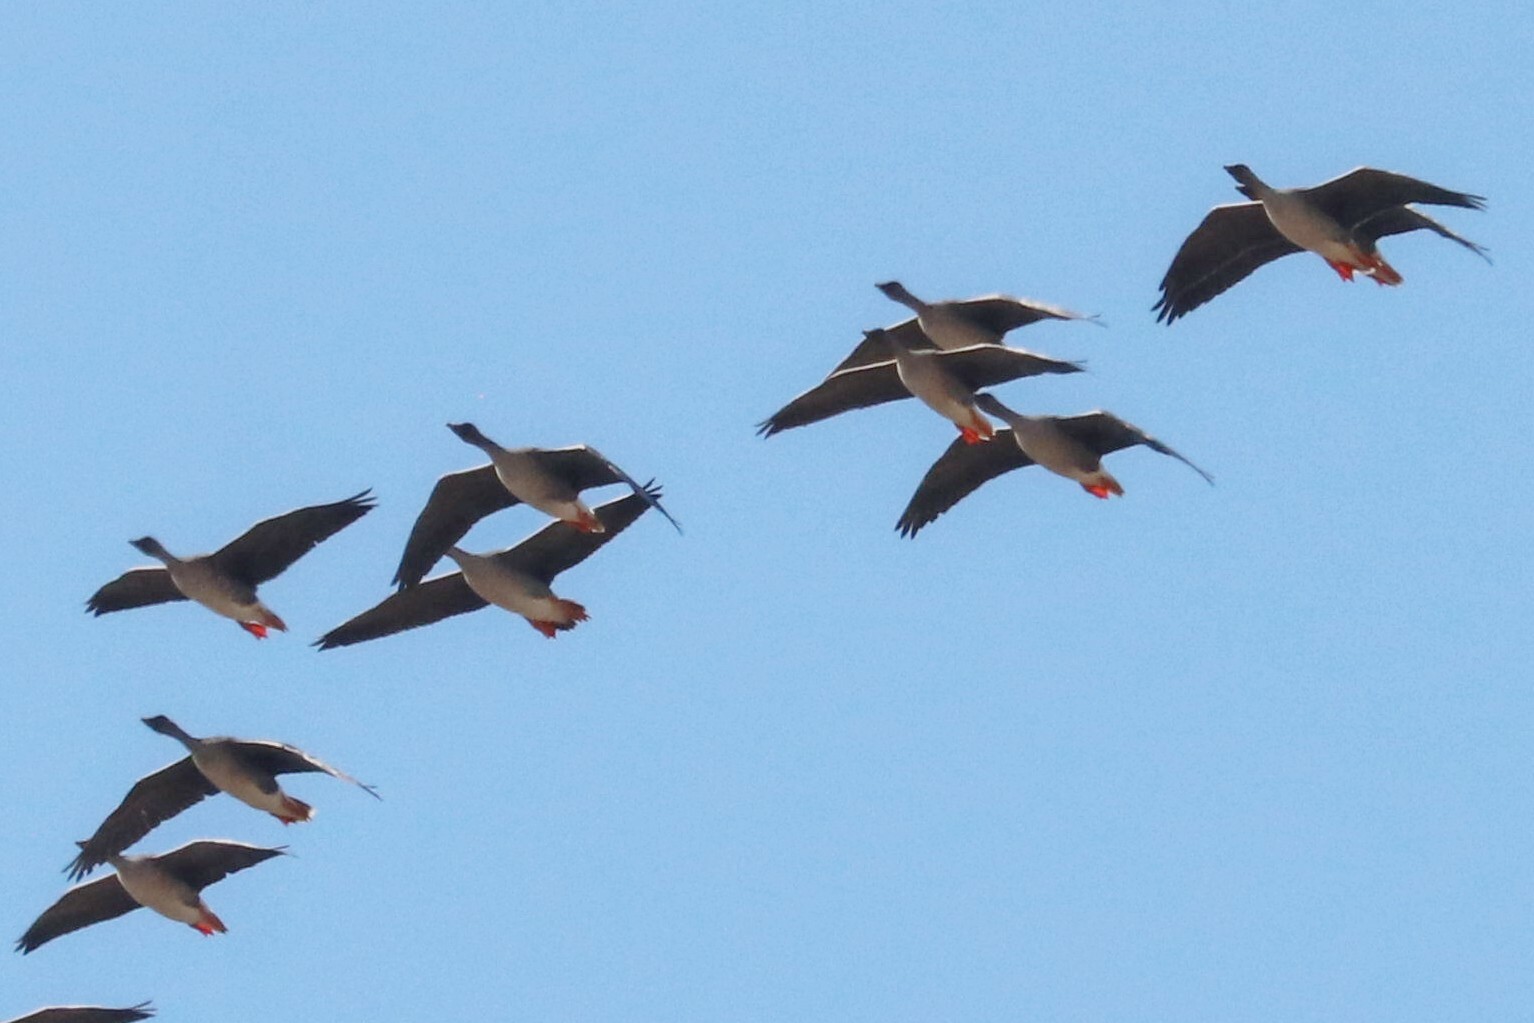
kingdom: Animalia
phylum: Chordata
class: Aves
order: Anseriformes
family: Anatidae
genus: Anser
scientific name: Anser fabalis
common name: Bean goose
